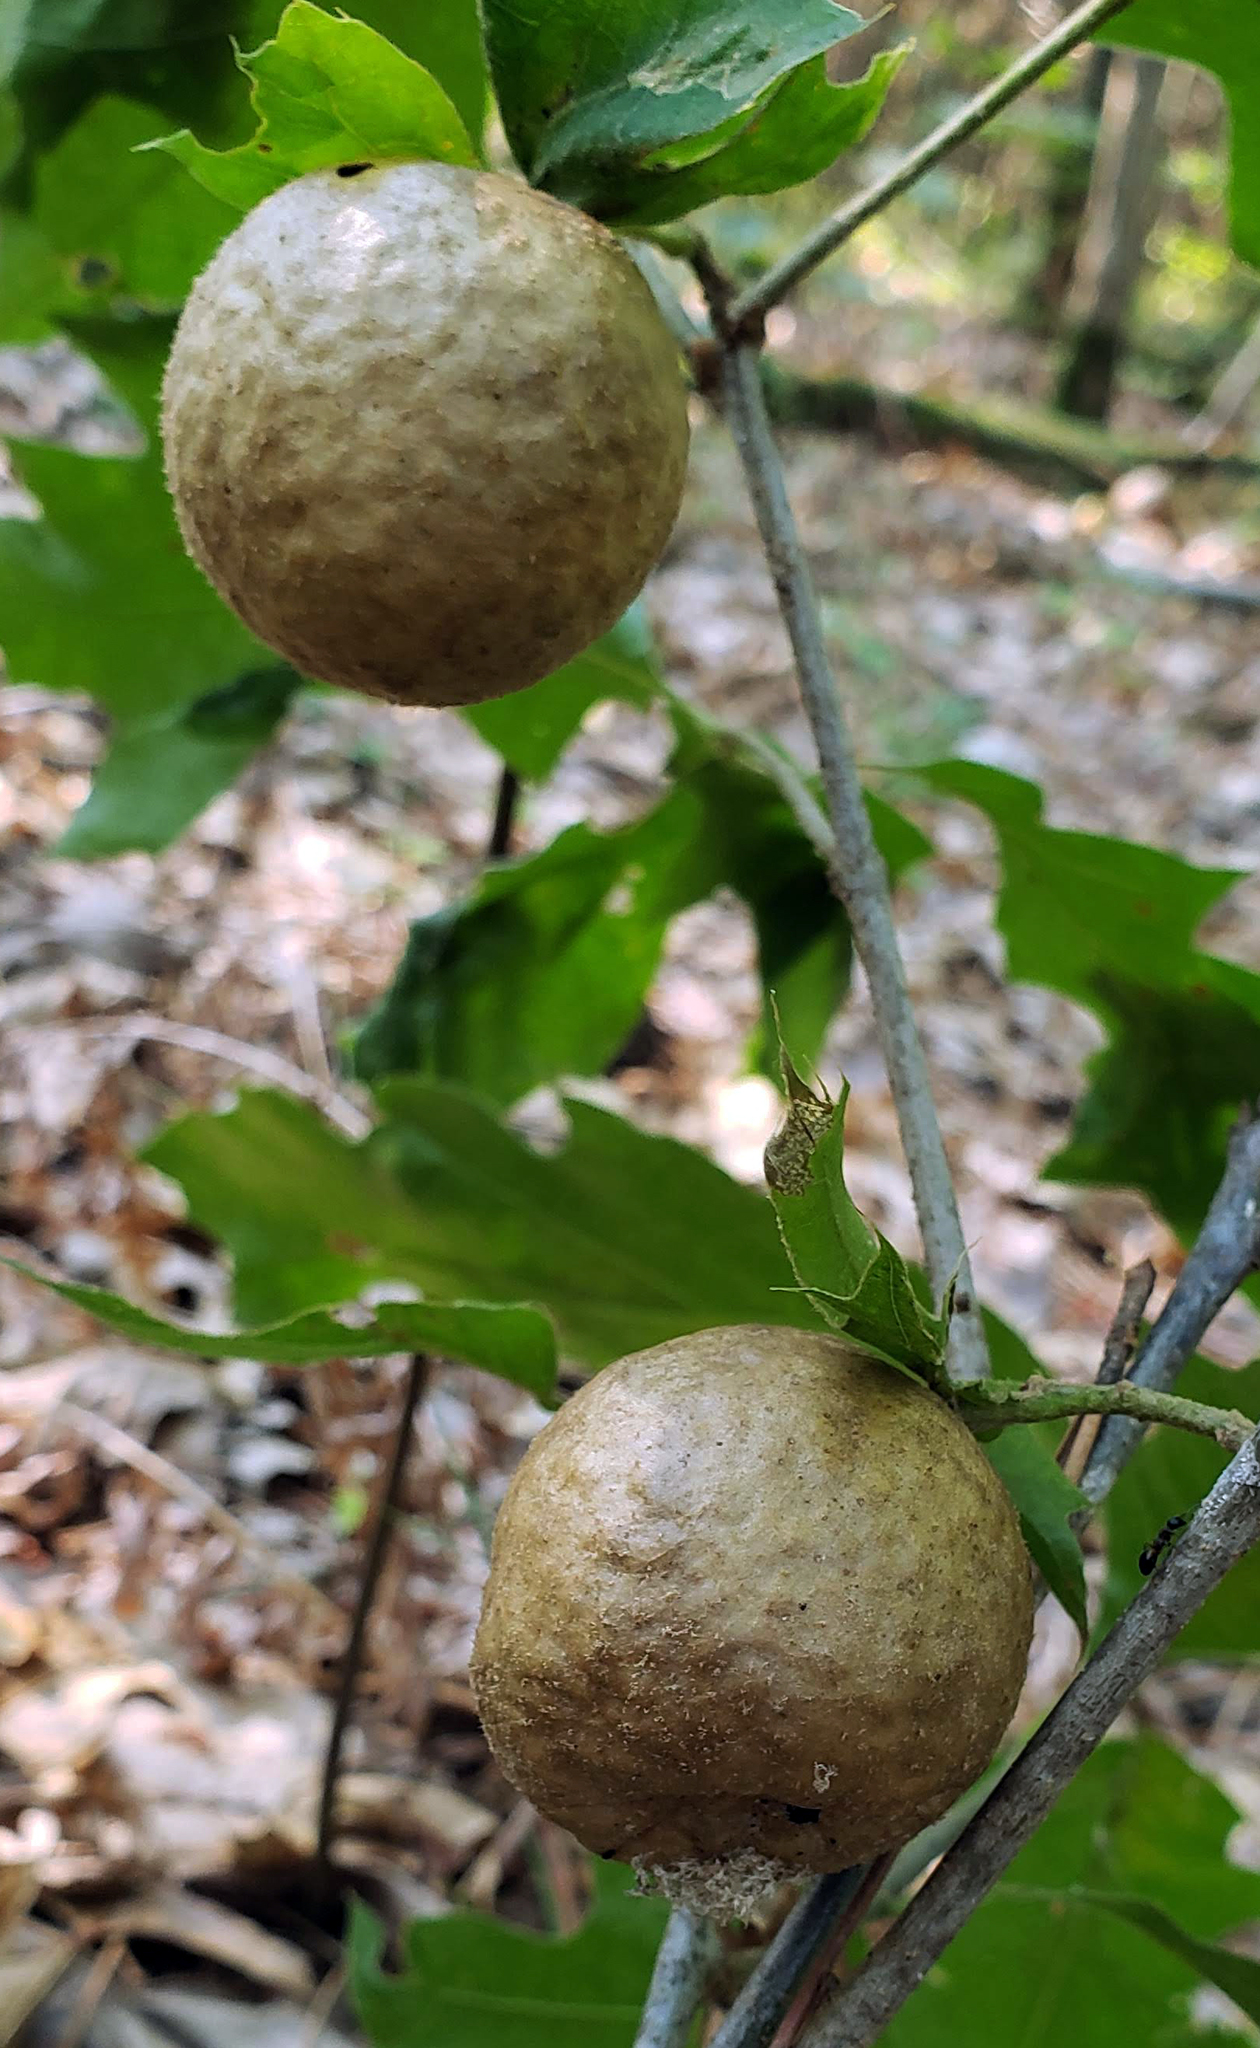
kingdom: Animalia
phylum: Arthropoda
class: Insecta
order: Hymenoptera
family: Cynipidae
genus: Amphibolips
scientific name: Amphibolips
